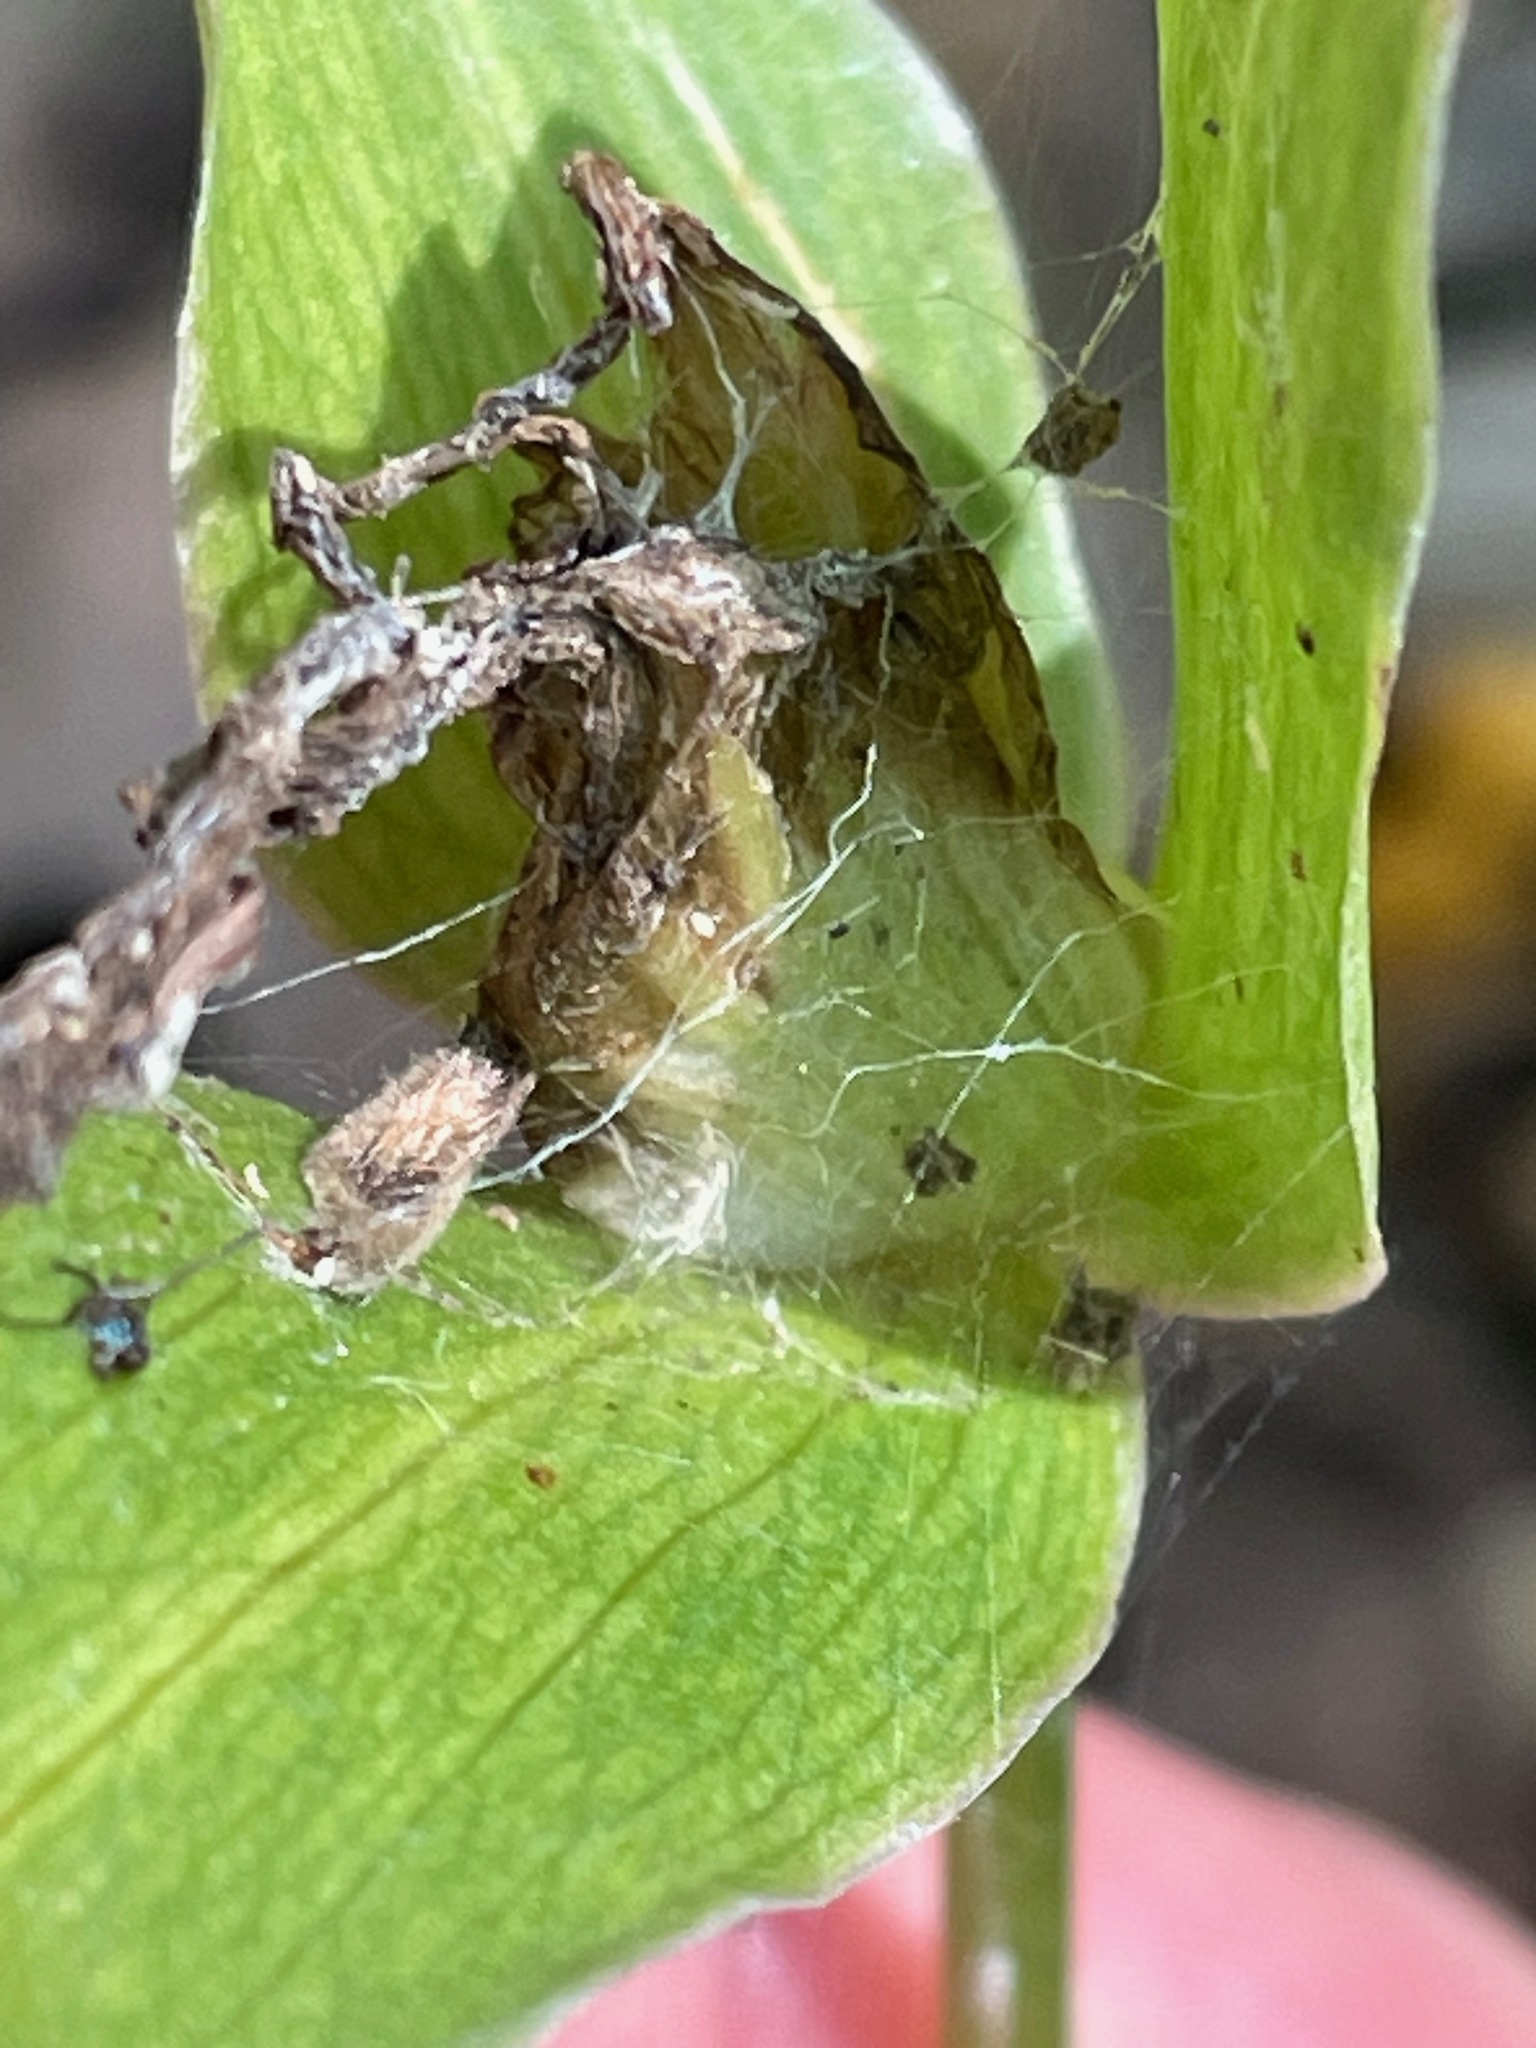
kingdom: Plantae
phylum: Tracheophyta
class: Liliopsida
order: Liliales
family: Melanthiaceae
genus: Trillium
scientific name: Trillium grandiflorum
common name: Great white trillium
